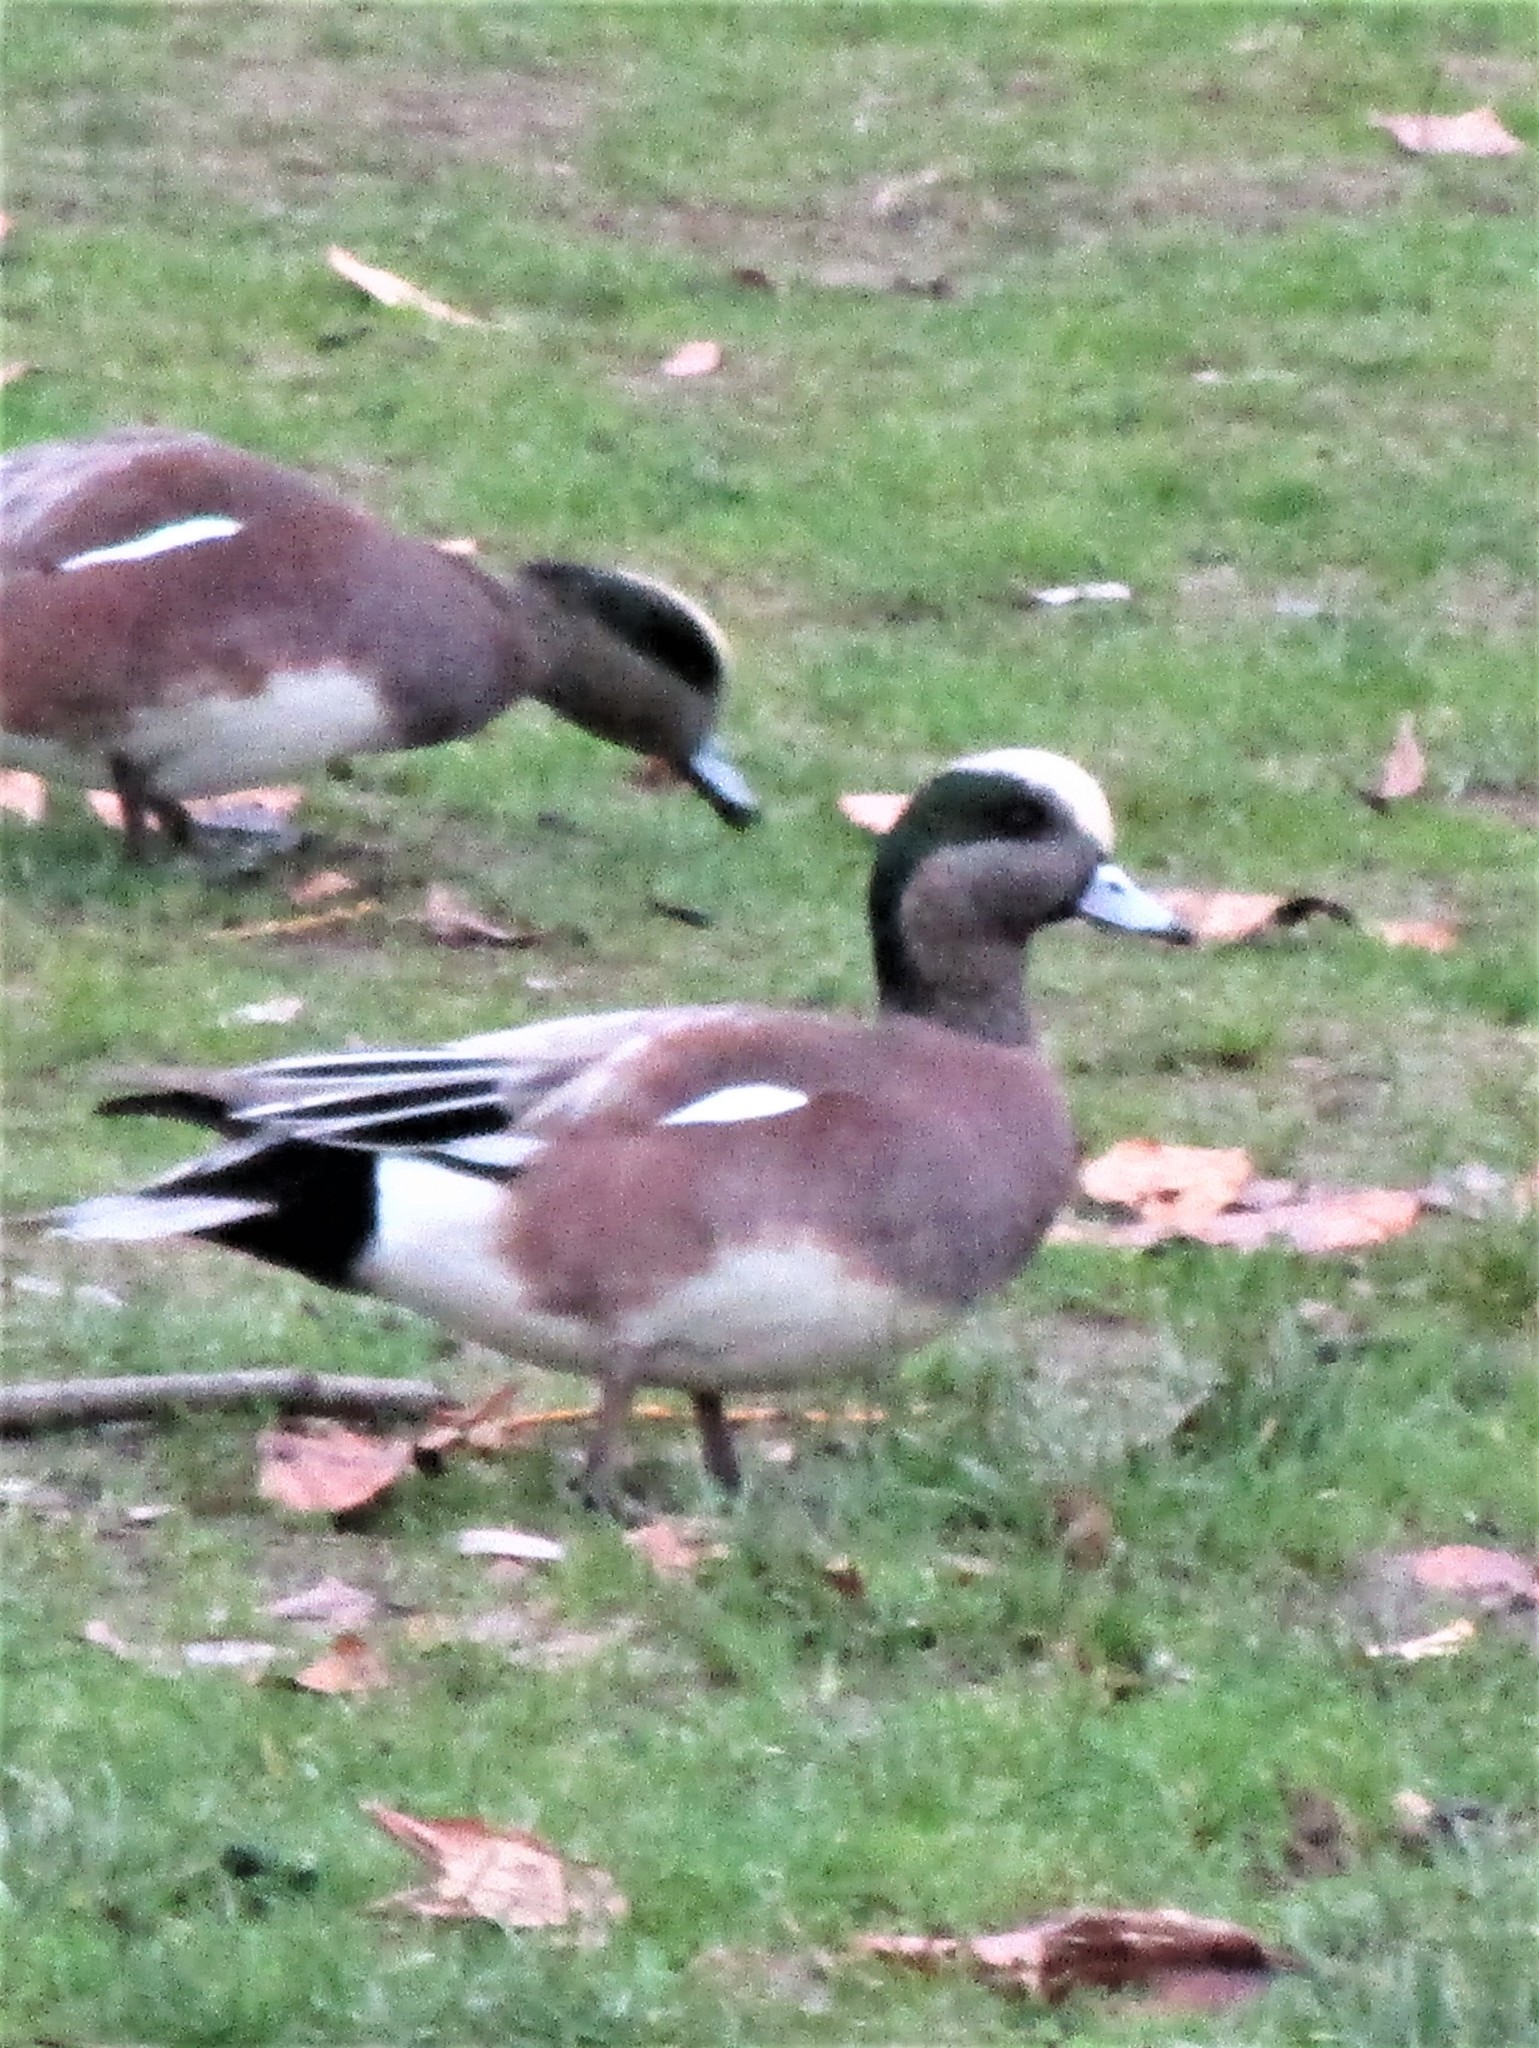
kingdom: Animalia
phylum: Chordata
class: Aves
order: Anseriformes
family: Anatidae
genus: Mareca
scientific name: Mareca americana
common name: American wigeon
